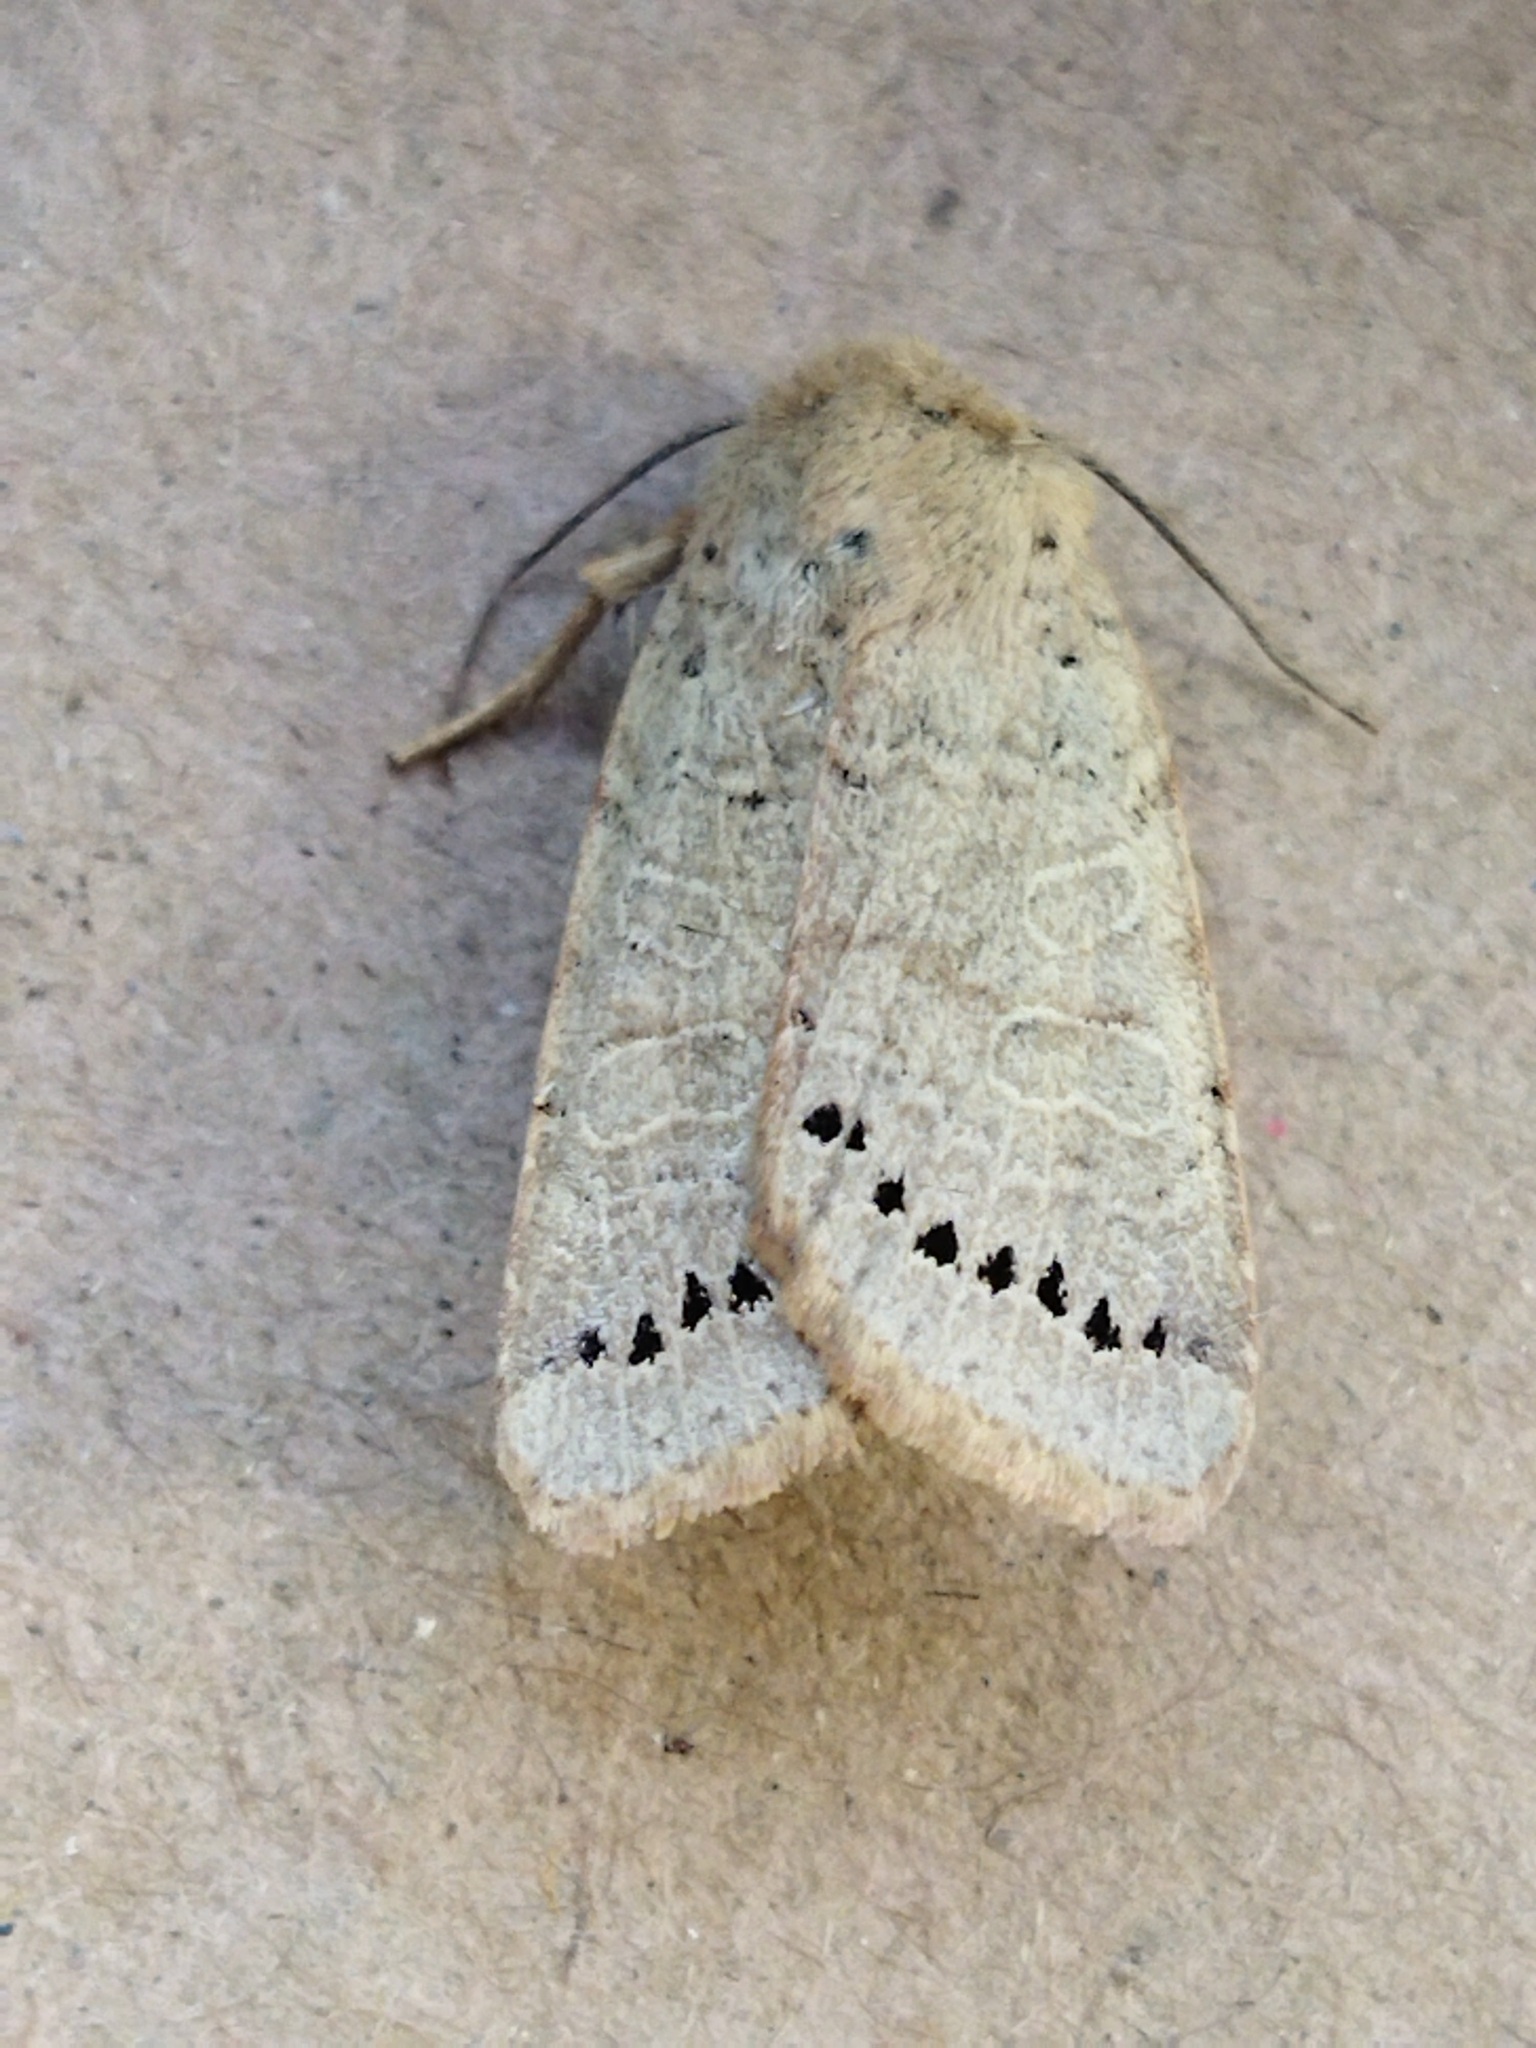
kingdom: Animalia
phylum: Arthropoda
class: Insecta
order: Lepidoptera
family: Noctuidae
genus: Agrochola
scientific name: Agrochola osthelderi
